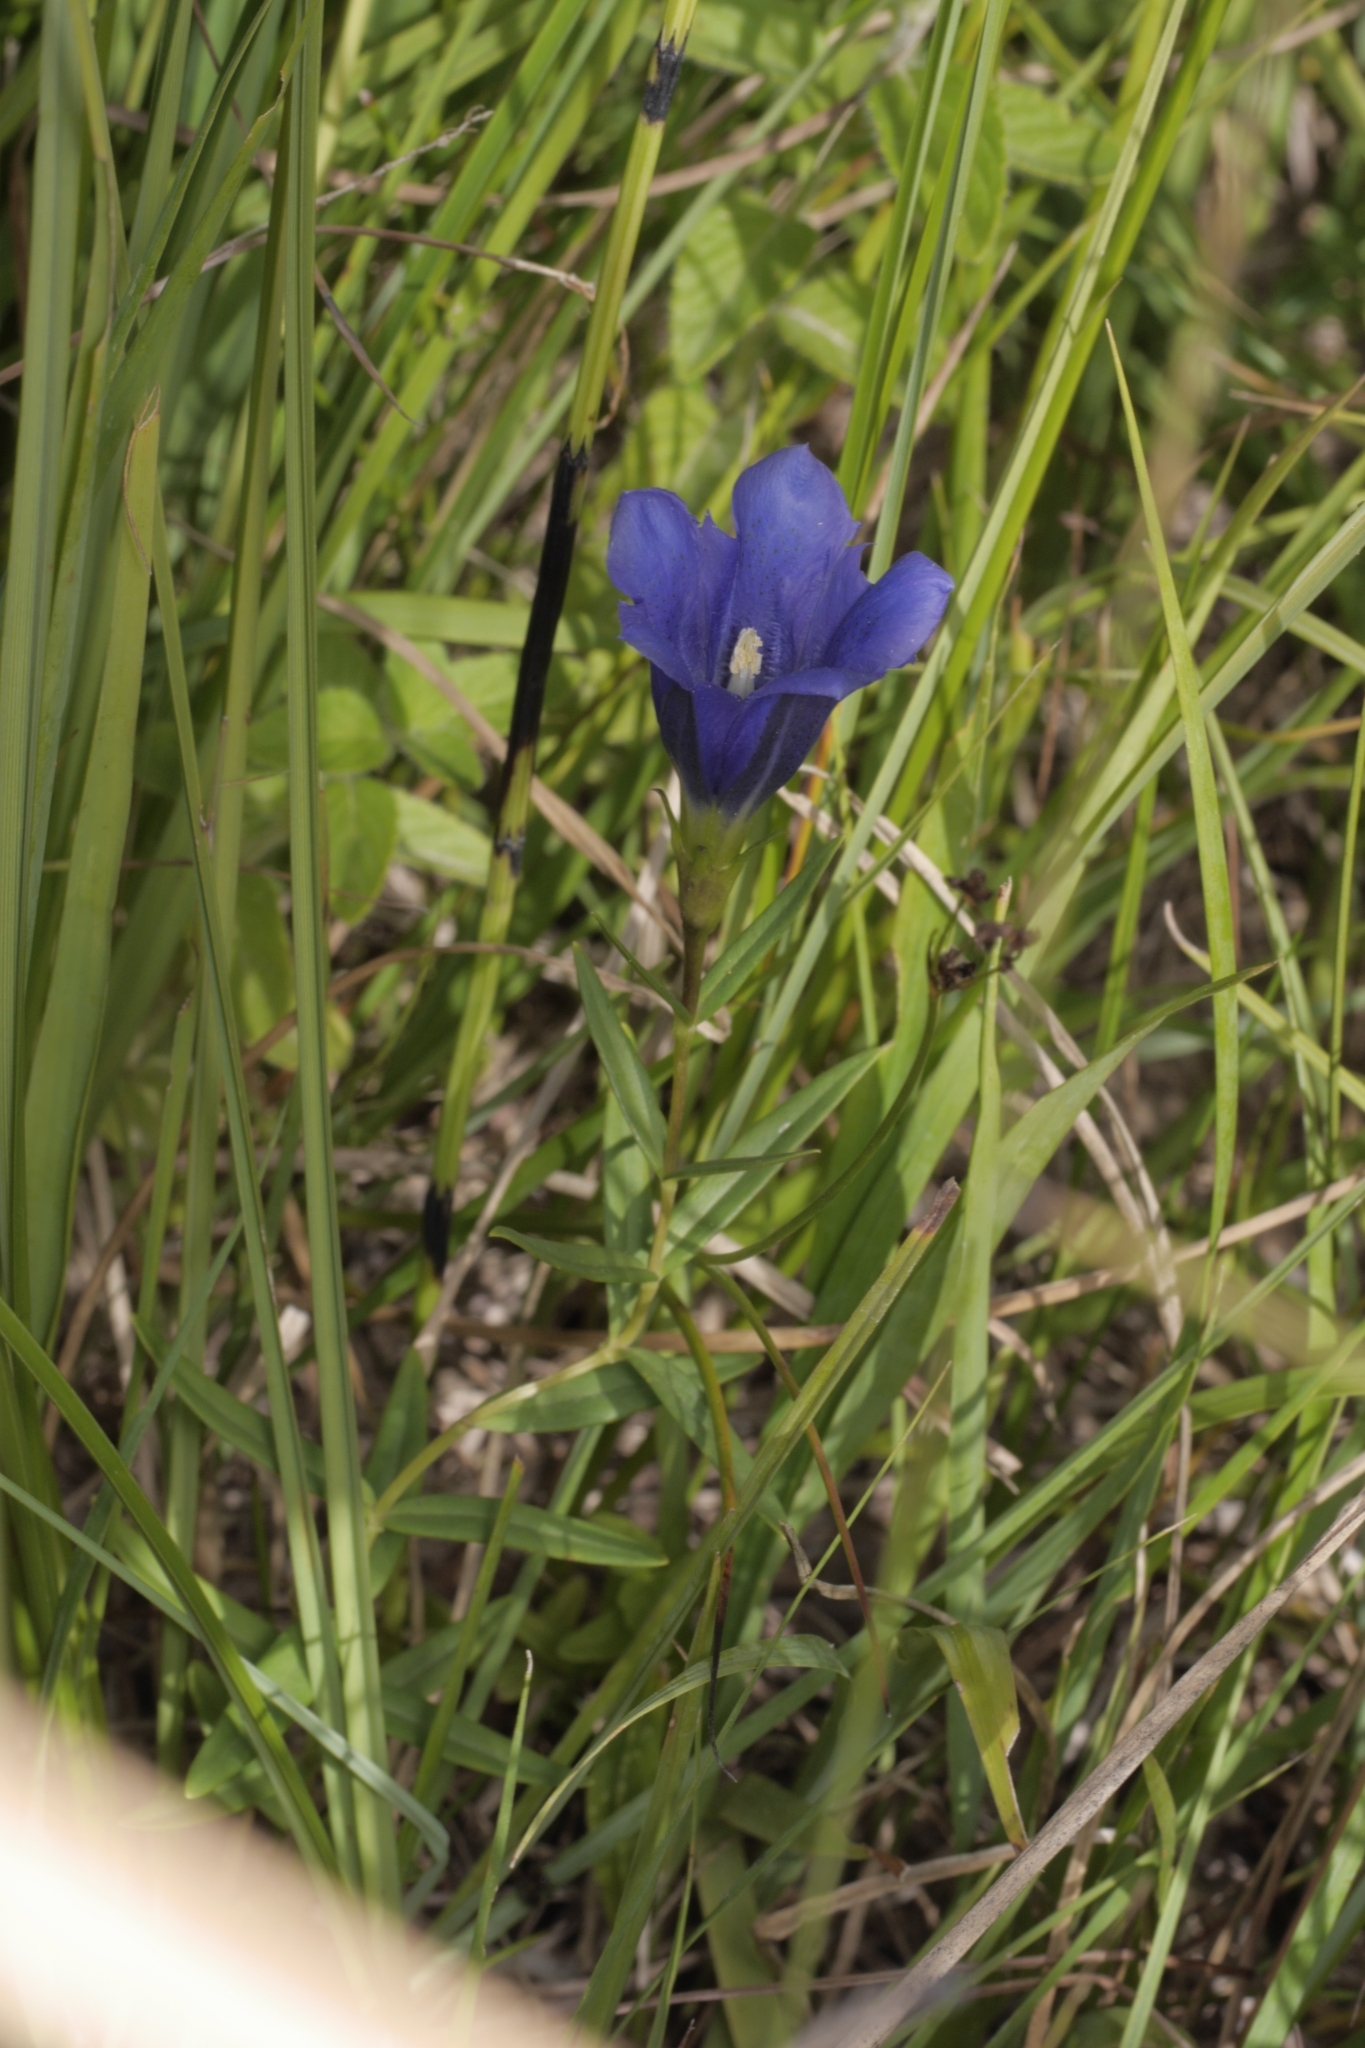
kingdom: Plantae
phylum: Tracheophyta
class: Magnoliopsida
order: Gentianales
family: Gentianaceae
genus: Gentiana
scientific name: Gentiana pneumonanthe
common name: Marsh gentian
